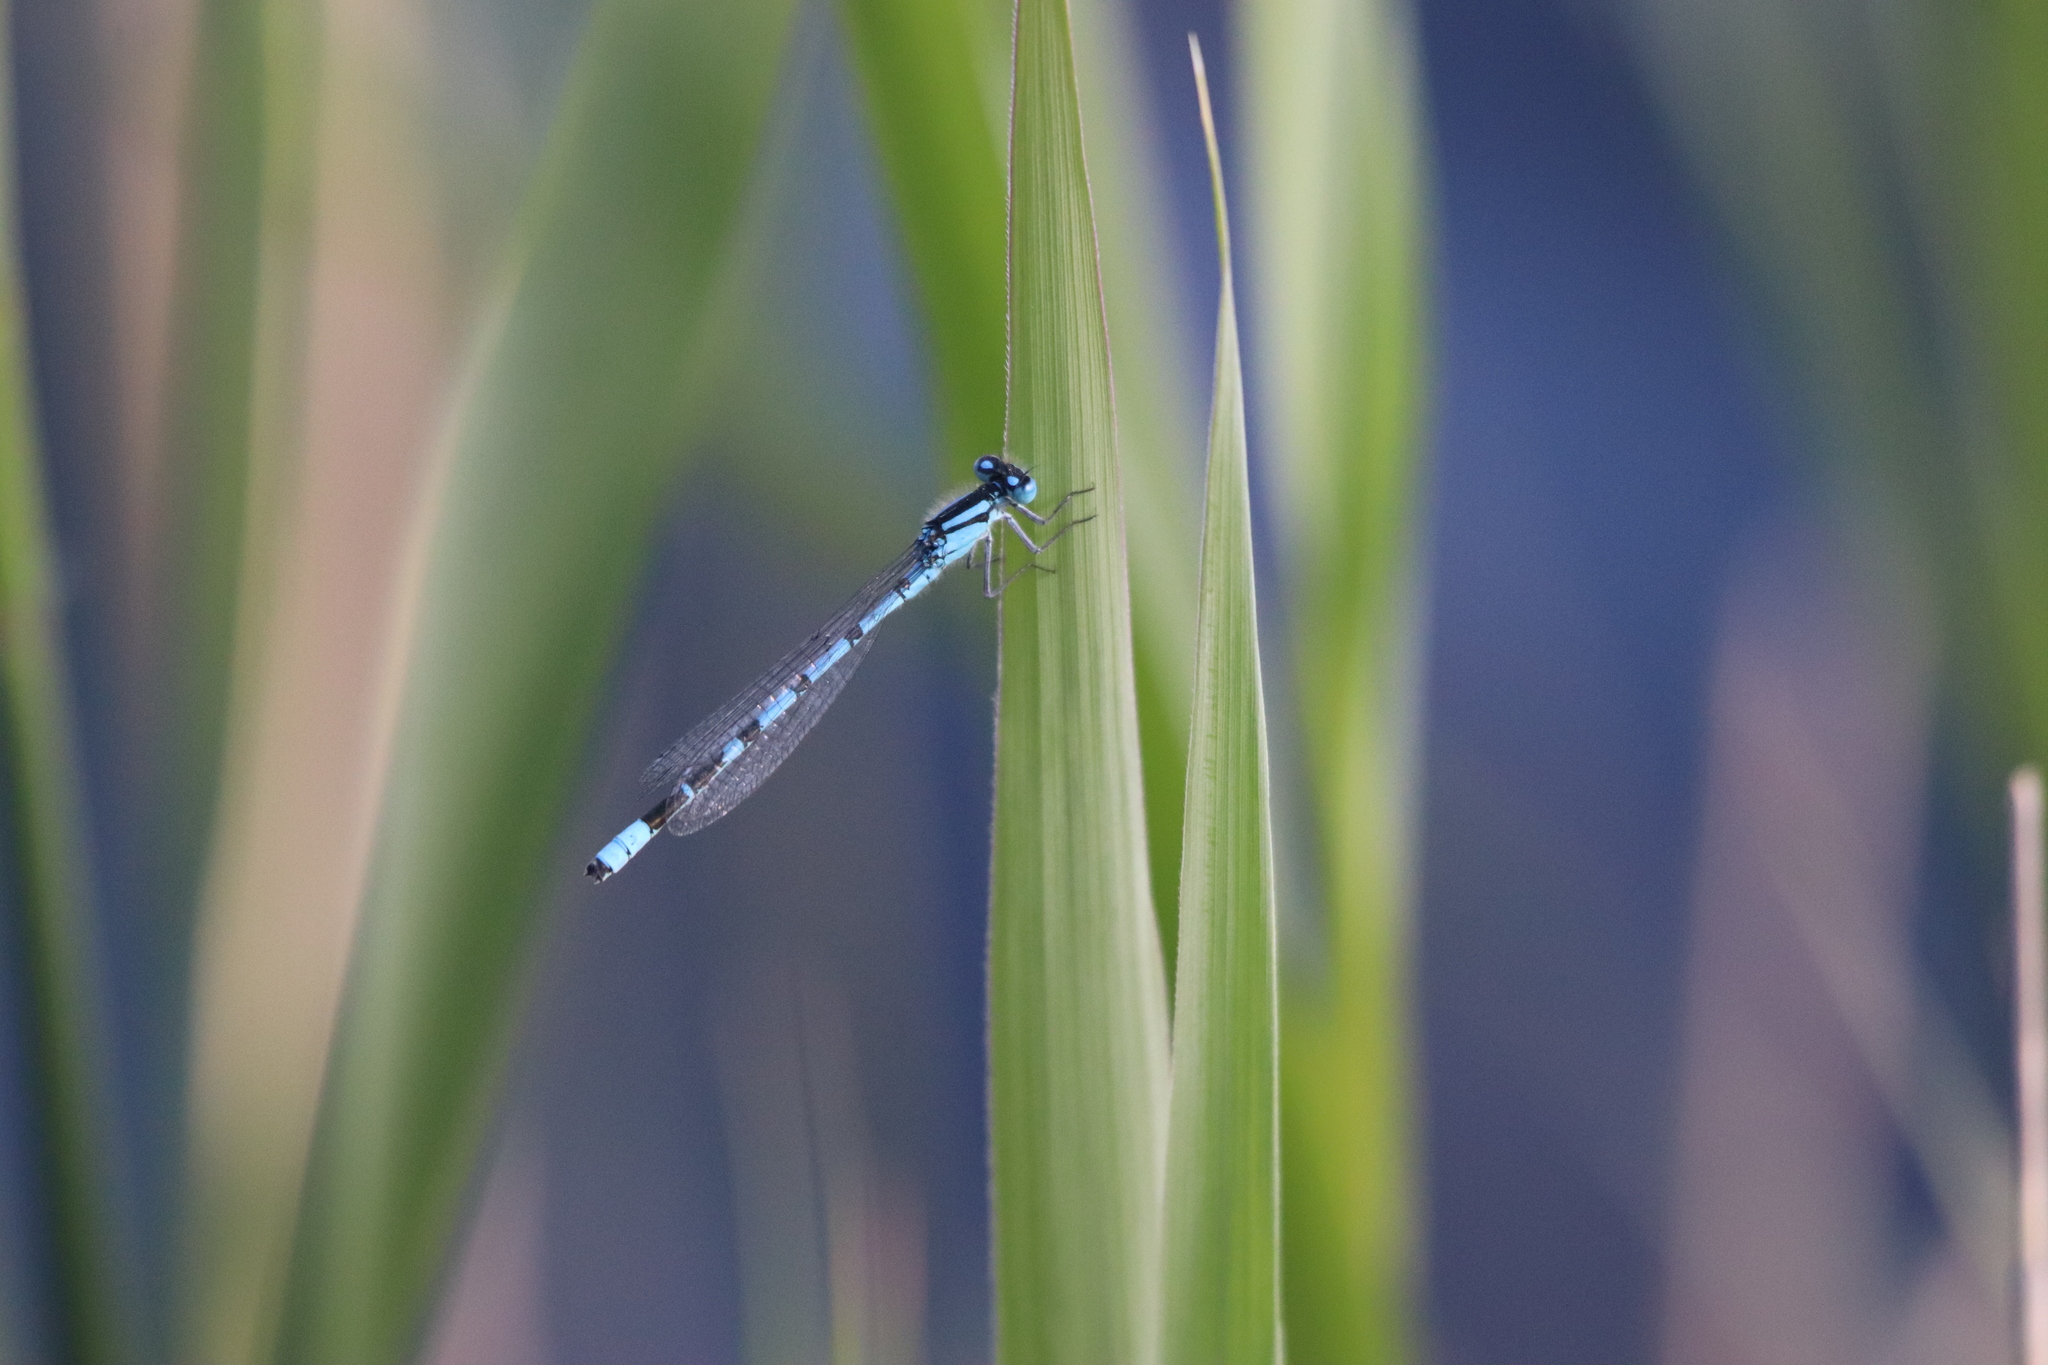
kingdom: Animalia
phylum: Arthropoda
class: Insecta
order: Odonata
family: Coenagrionidae
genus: Enallagma
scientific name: Enallagma cyathigerum
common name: Common blue damselfly
